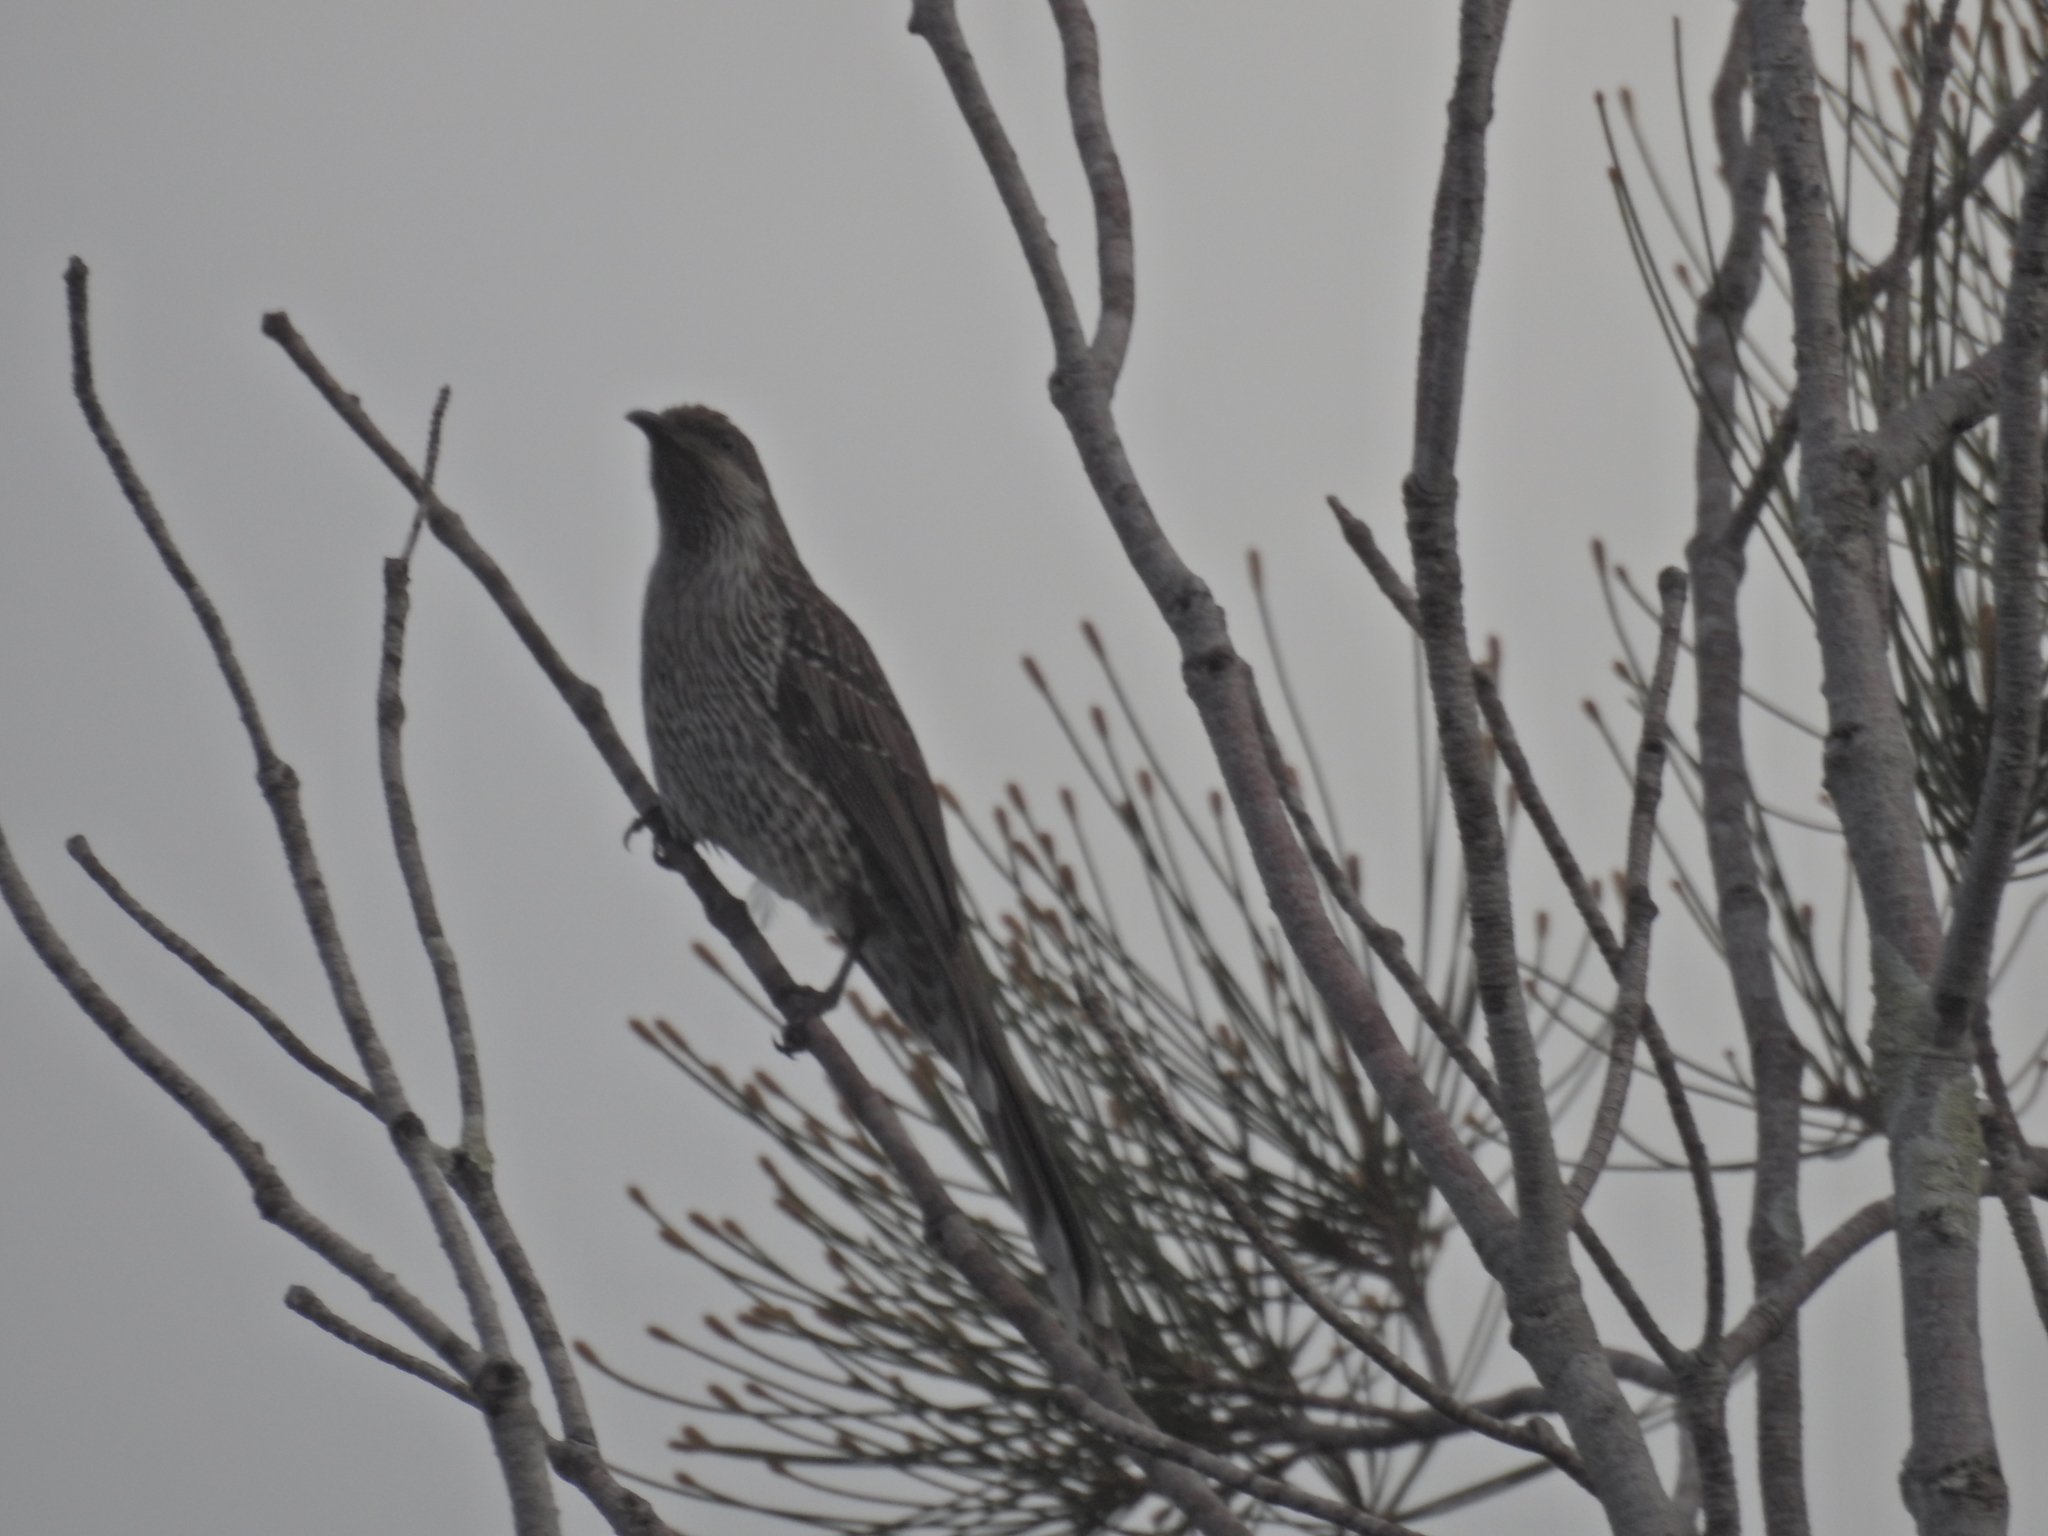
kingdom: Animalia
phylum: Chordata
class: Aves
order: Passeriformes
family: Meliphagidae
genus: Anthochaera
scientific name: Anthochaera chrysoptera
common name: Little wattlebird
